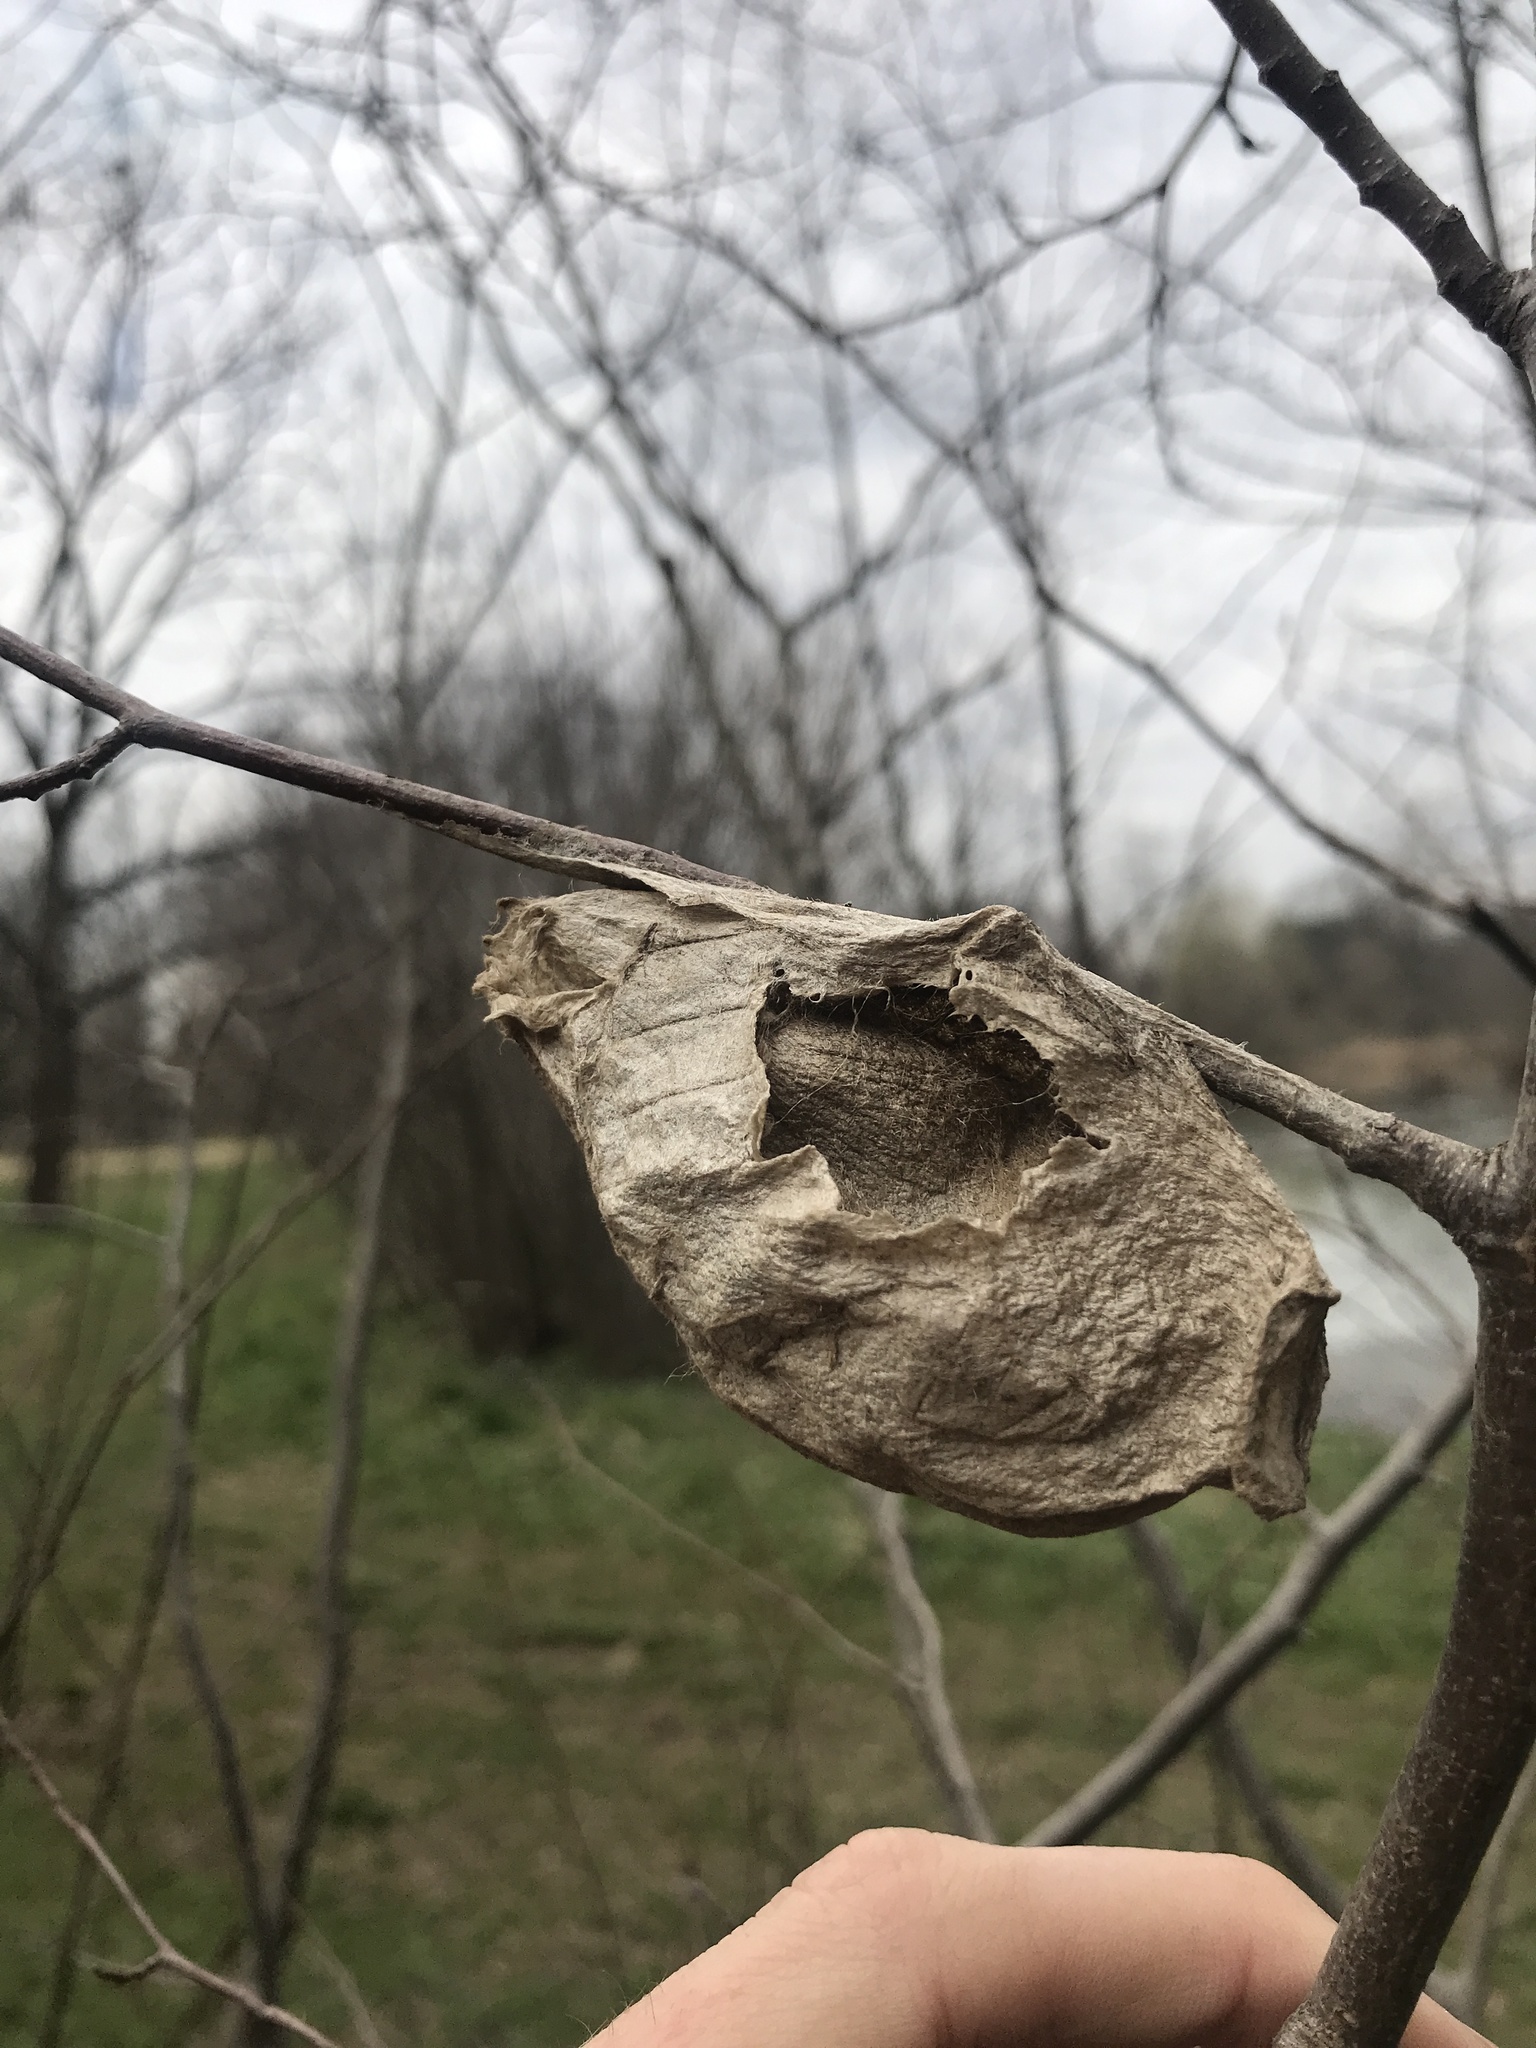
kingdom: Animalia
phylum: Arthropoda
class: Insecta
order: Lepidoptera
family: Saturniidae
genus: Hyalophora
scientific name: Hyalophora cecropia
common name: Cecropia silkmoth
